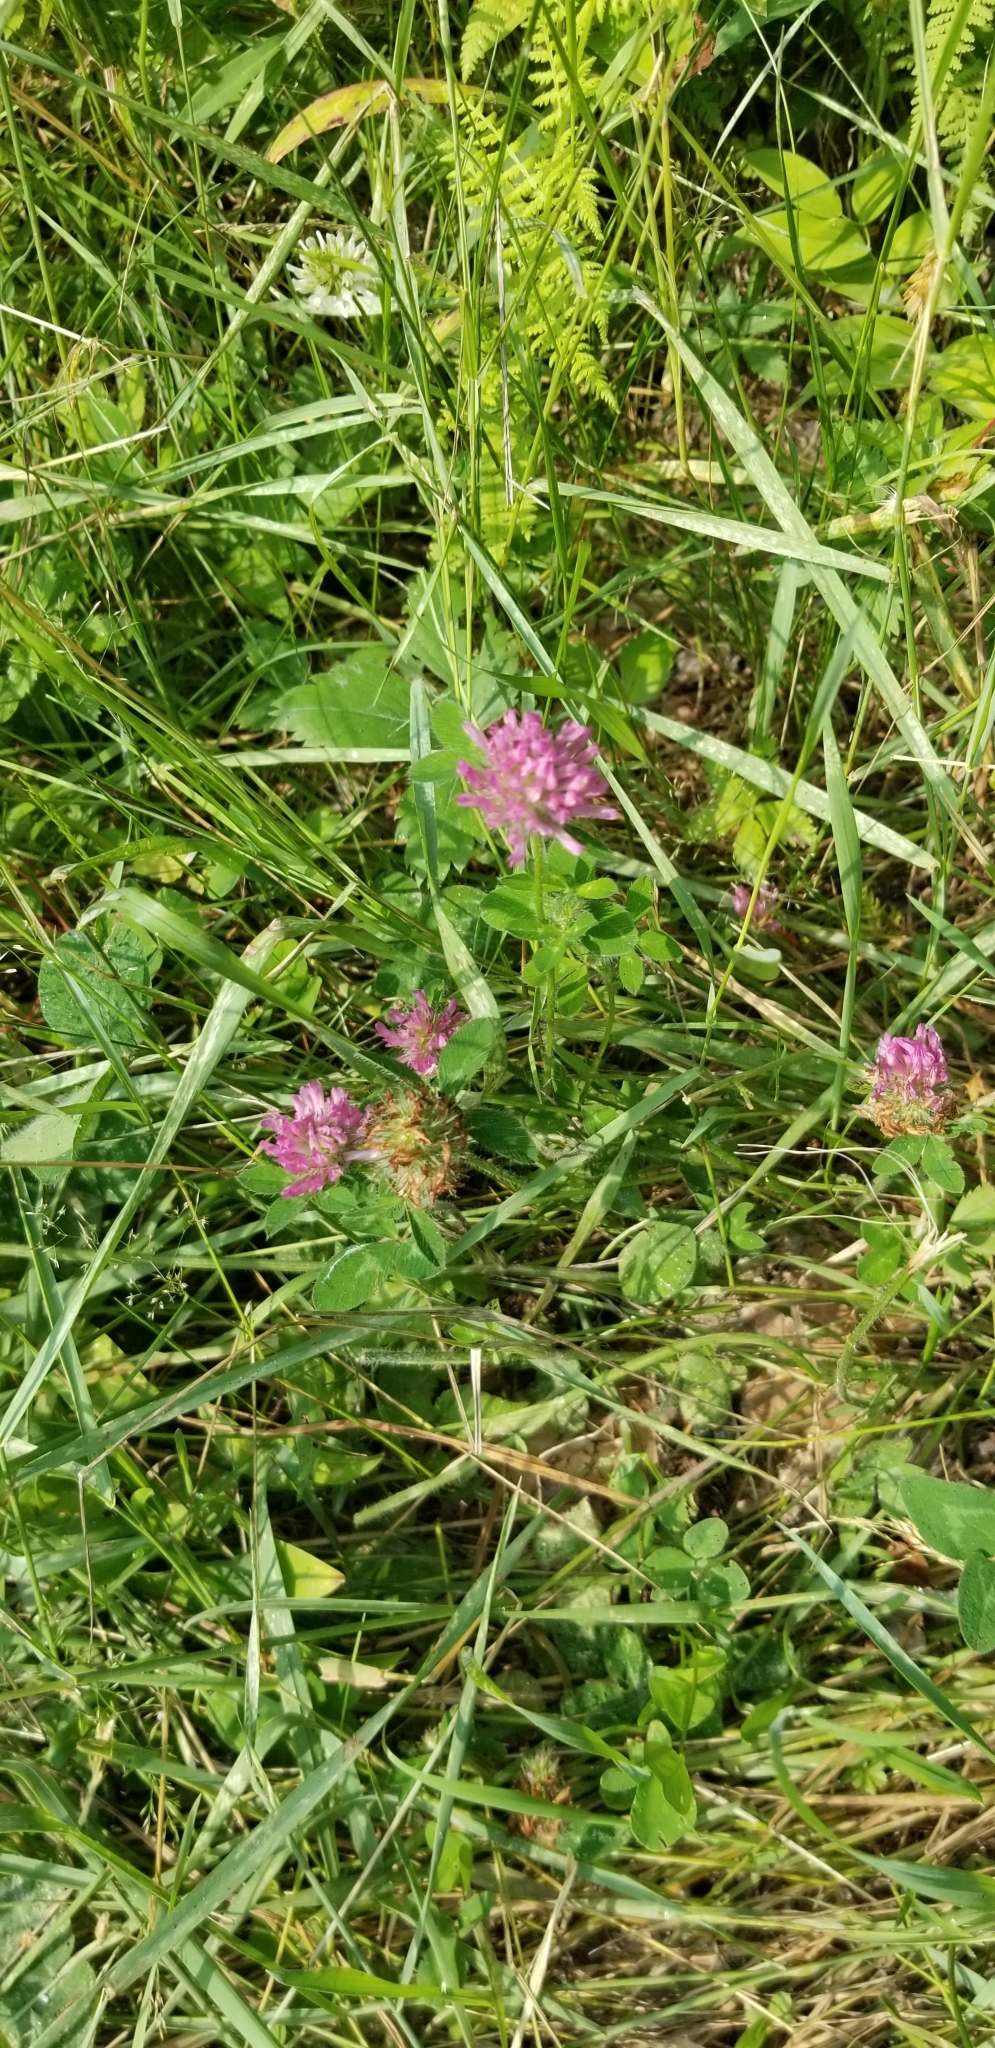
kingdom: Plantae
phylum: Tracheophyta
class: Magnoliopsida
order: Fabales
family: Fabaceae
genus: Trifolium
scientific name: Trifolium pratense
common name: Red clover
